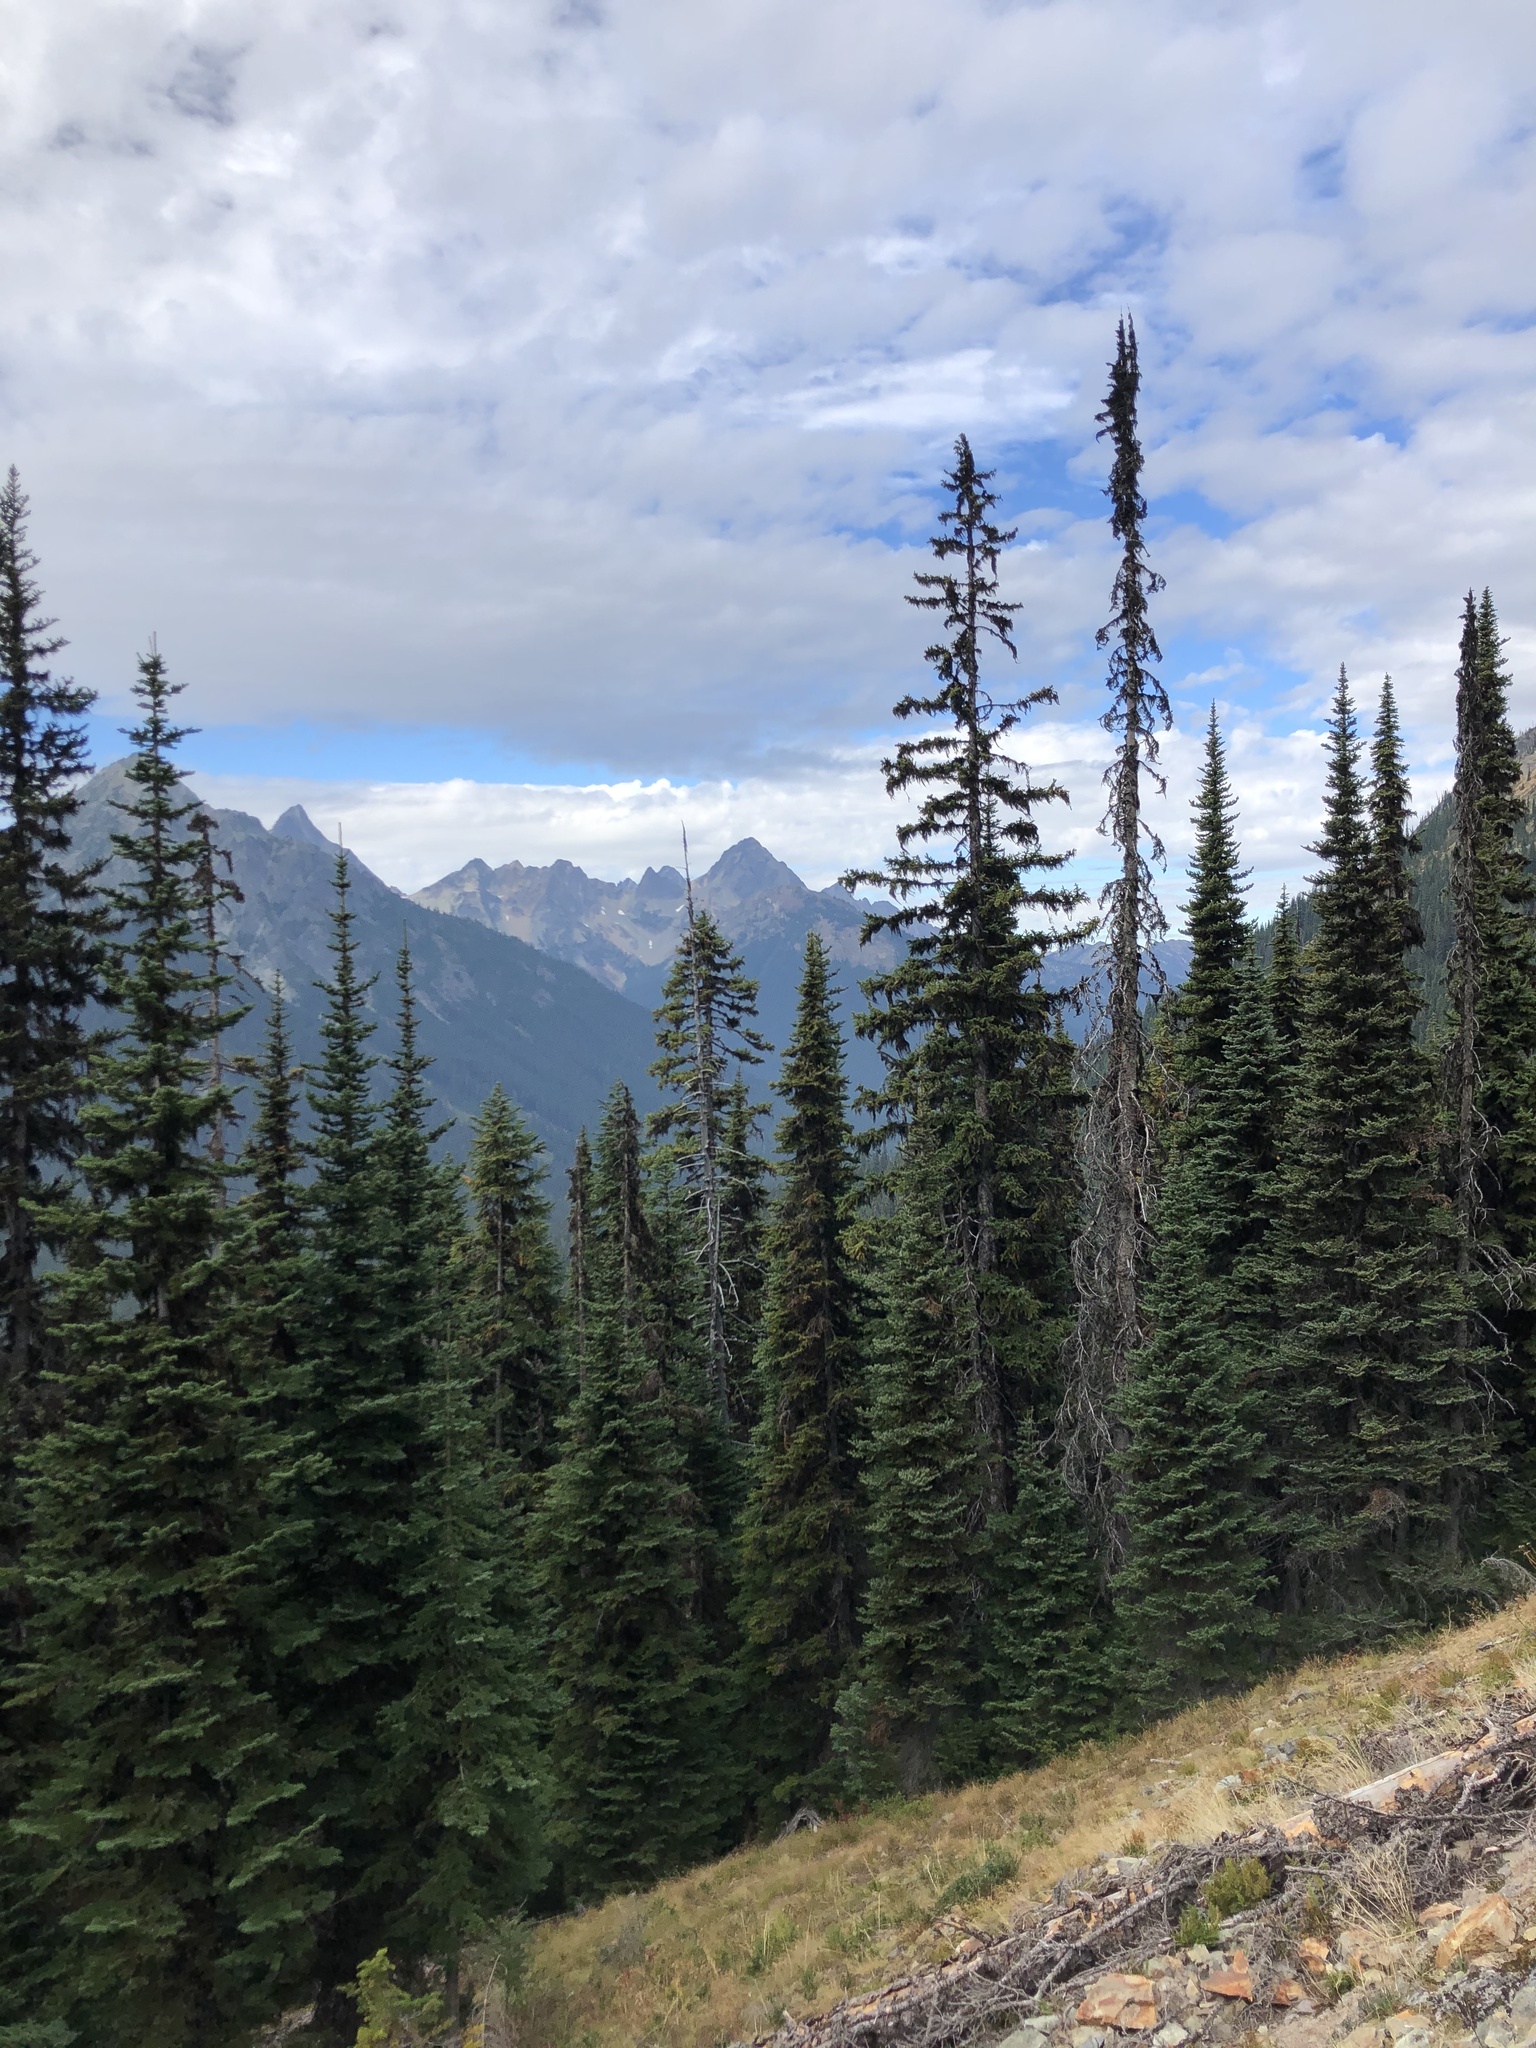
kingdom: Plantae
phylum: Tracheophyta
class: Pinopsida
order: Pinales
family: Pinaceae
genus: Picea
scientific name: Picea engelmannii
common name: Engelmann spruce
